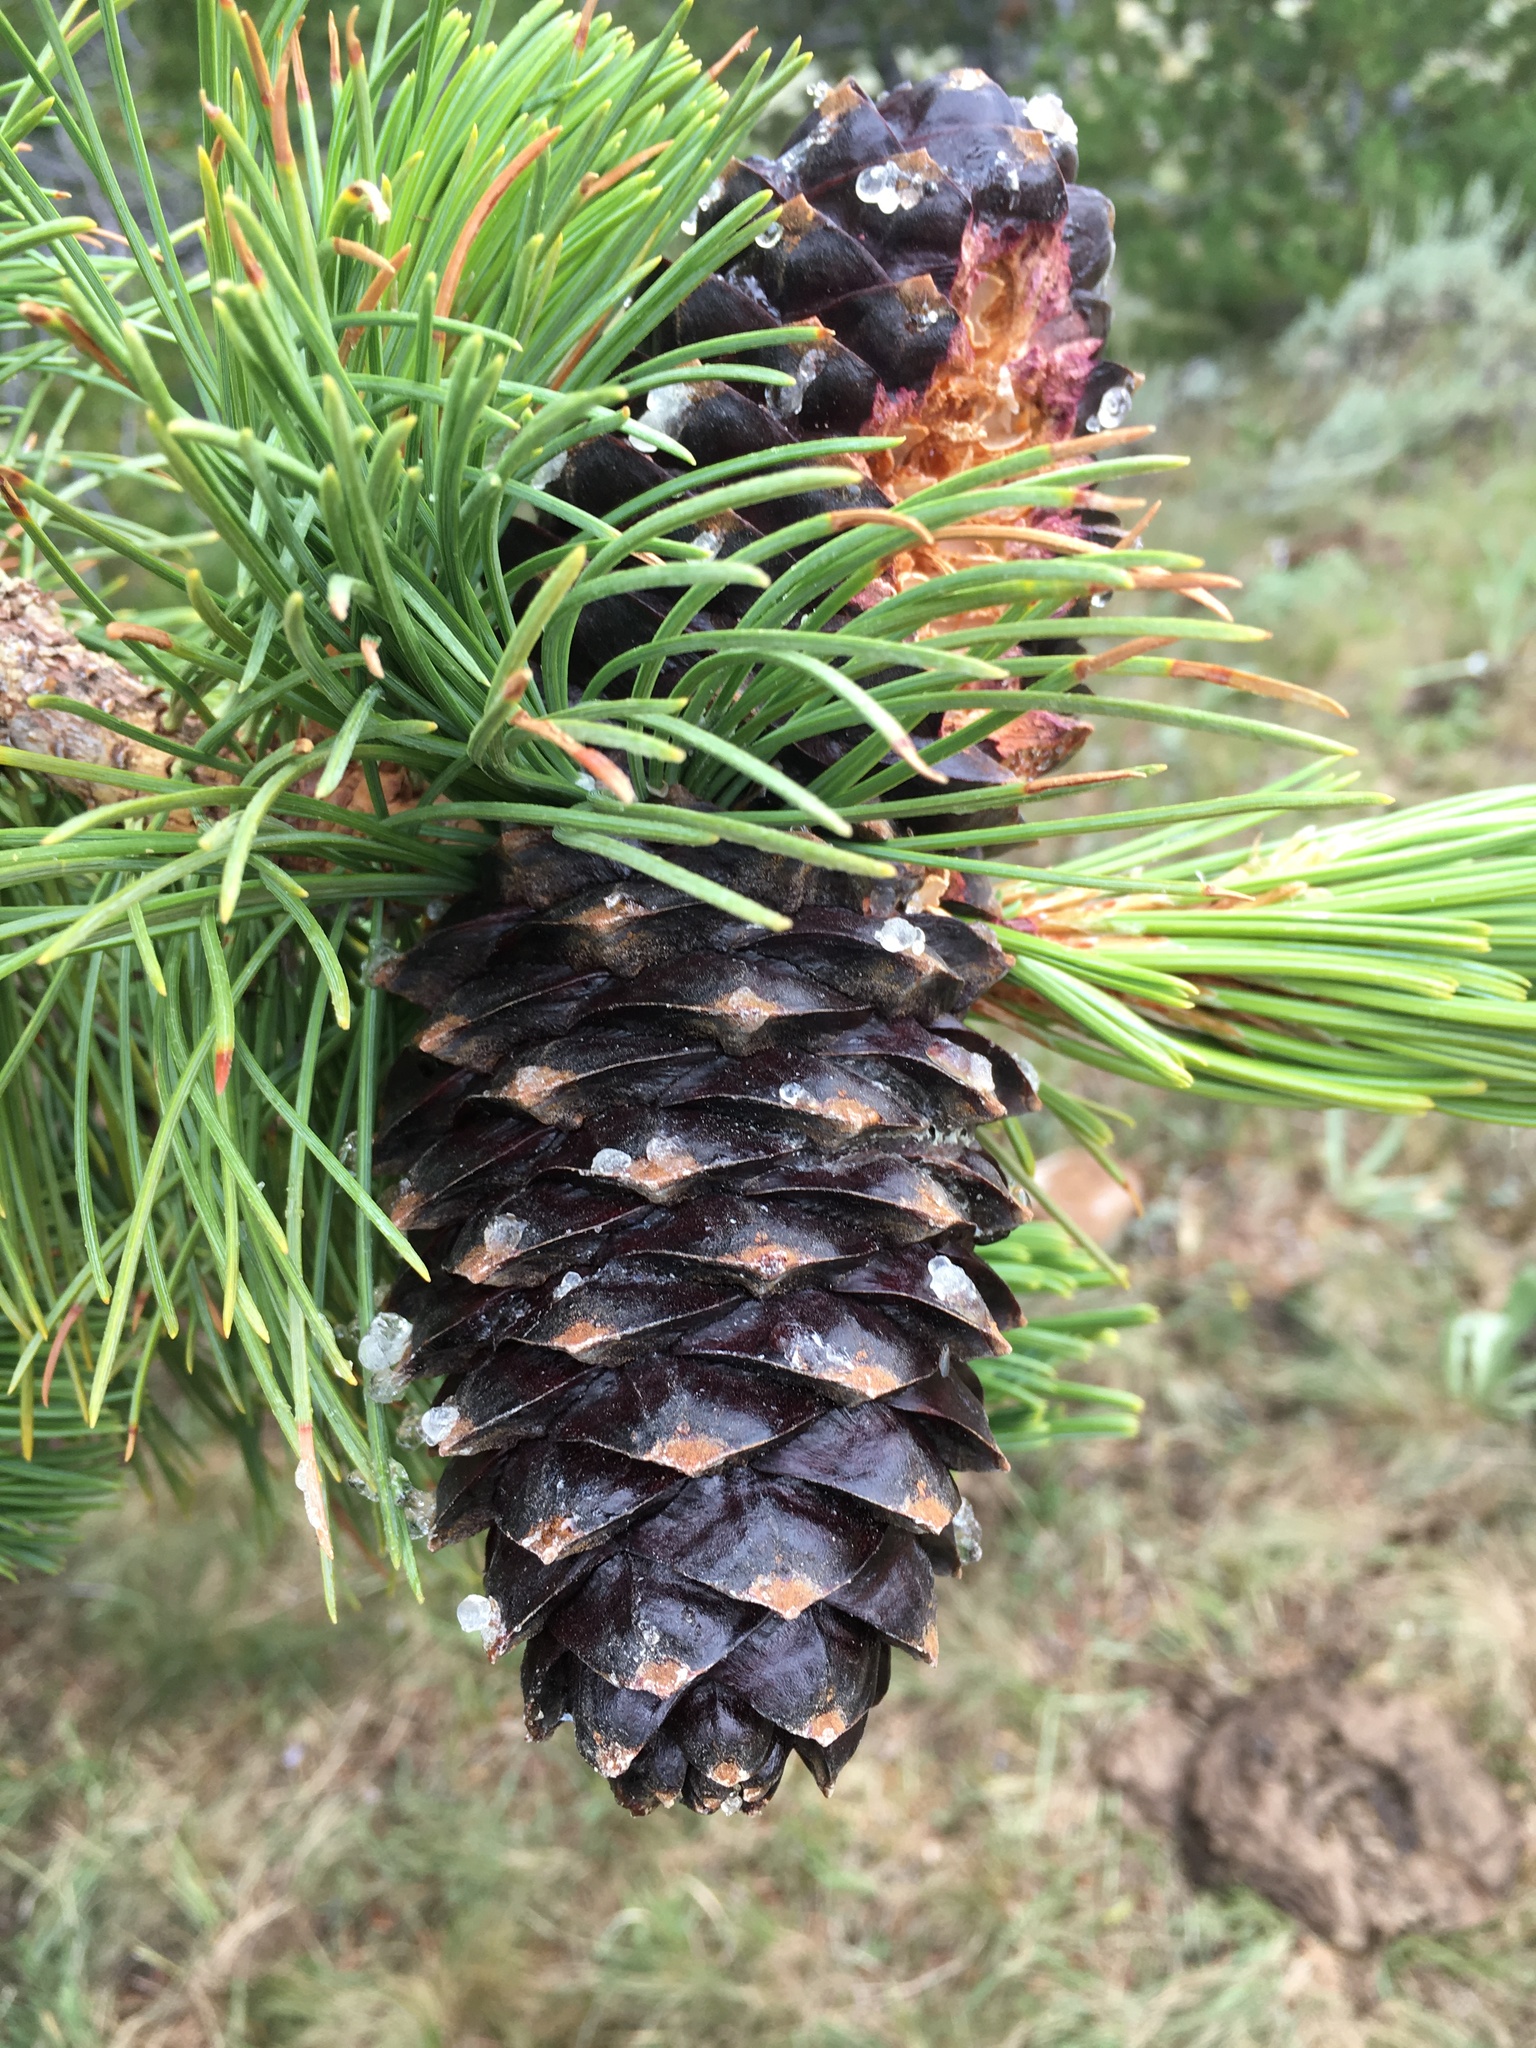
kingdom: Plantae
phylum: Tracheophyta
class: Pinopsida
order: Pinales
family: Pinaceae
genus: Pinus
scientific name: Pinus albicaulis
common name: Whitebark pine
